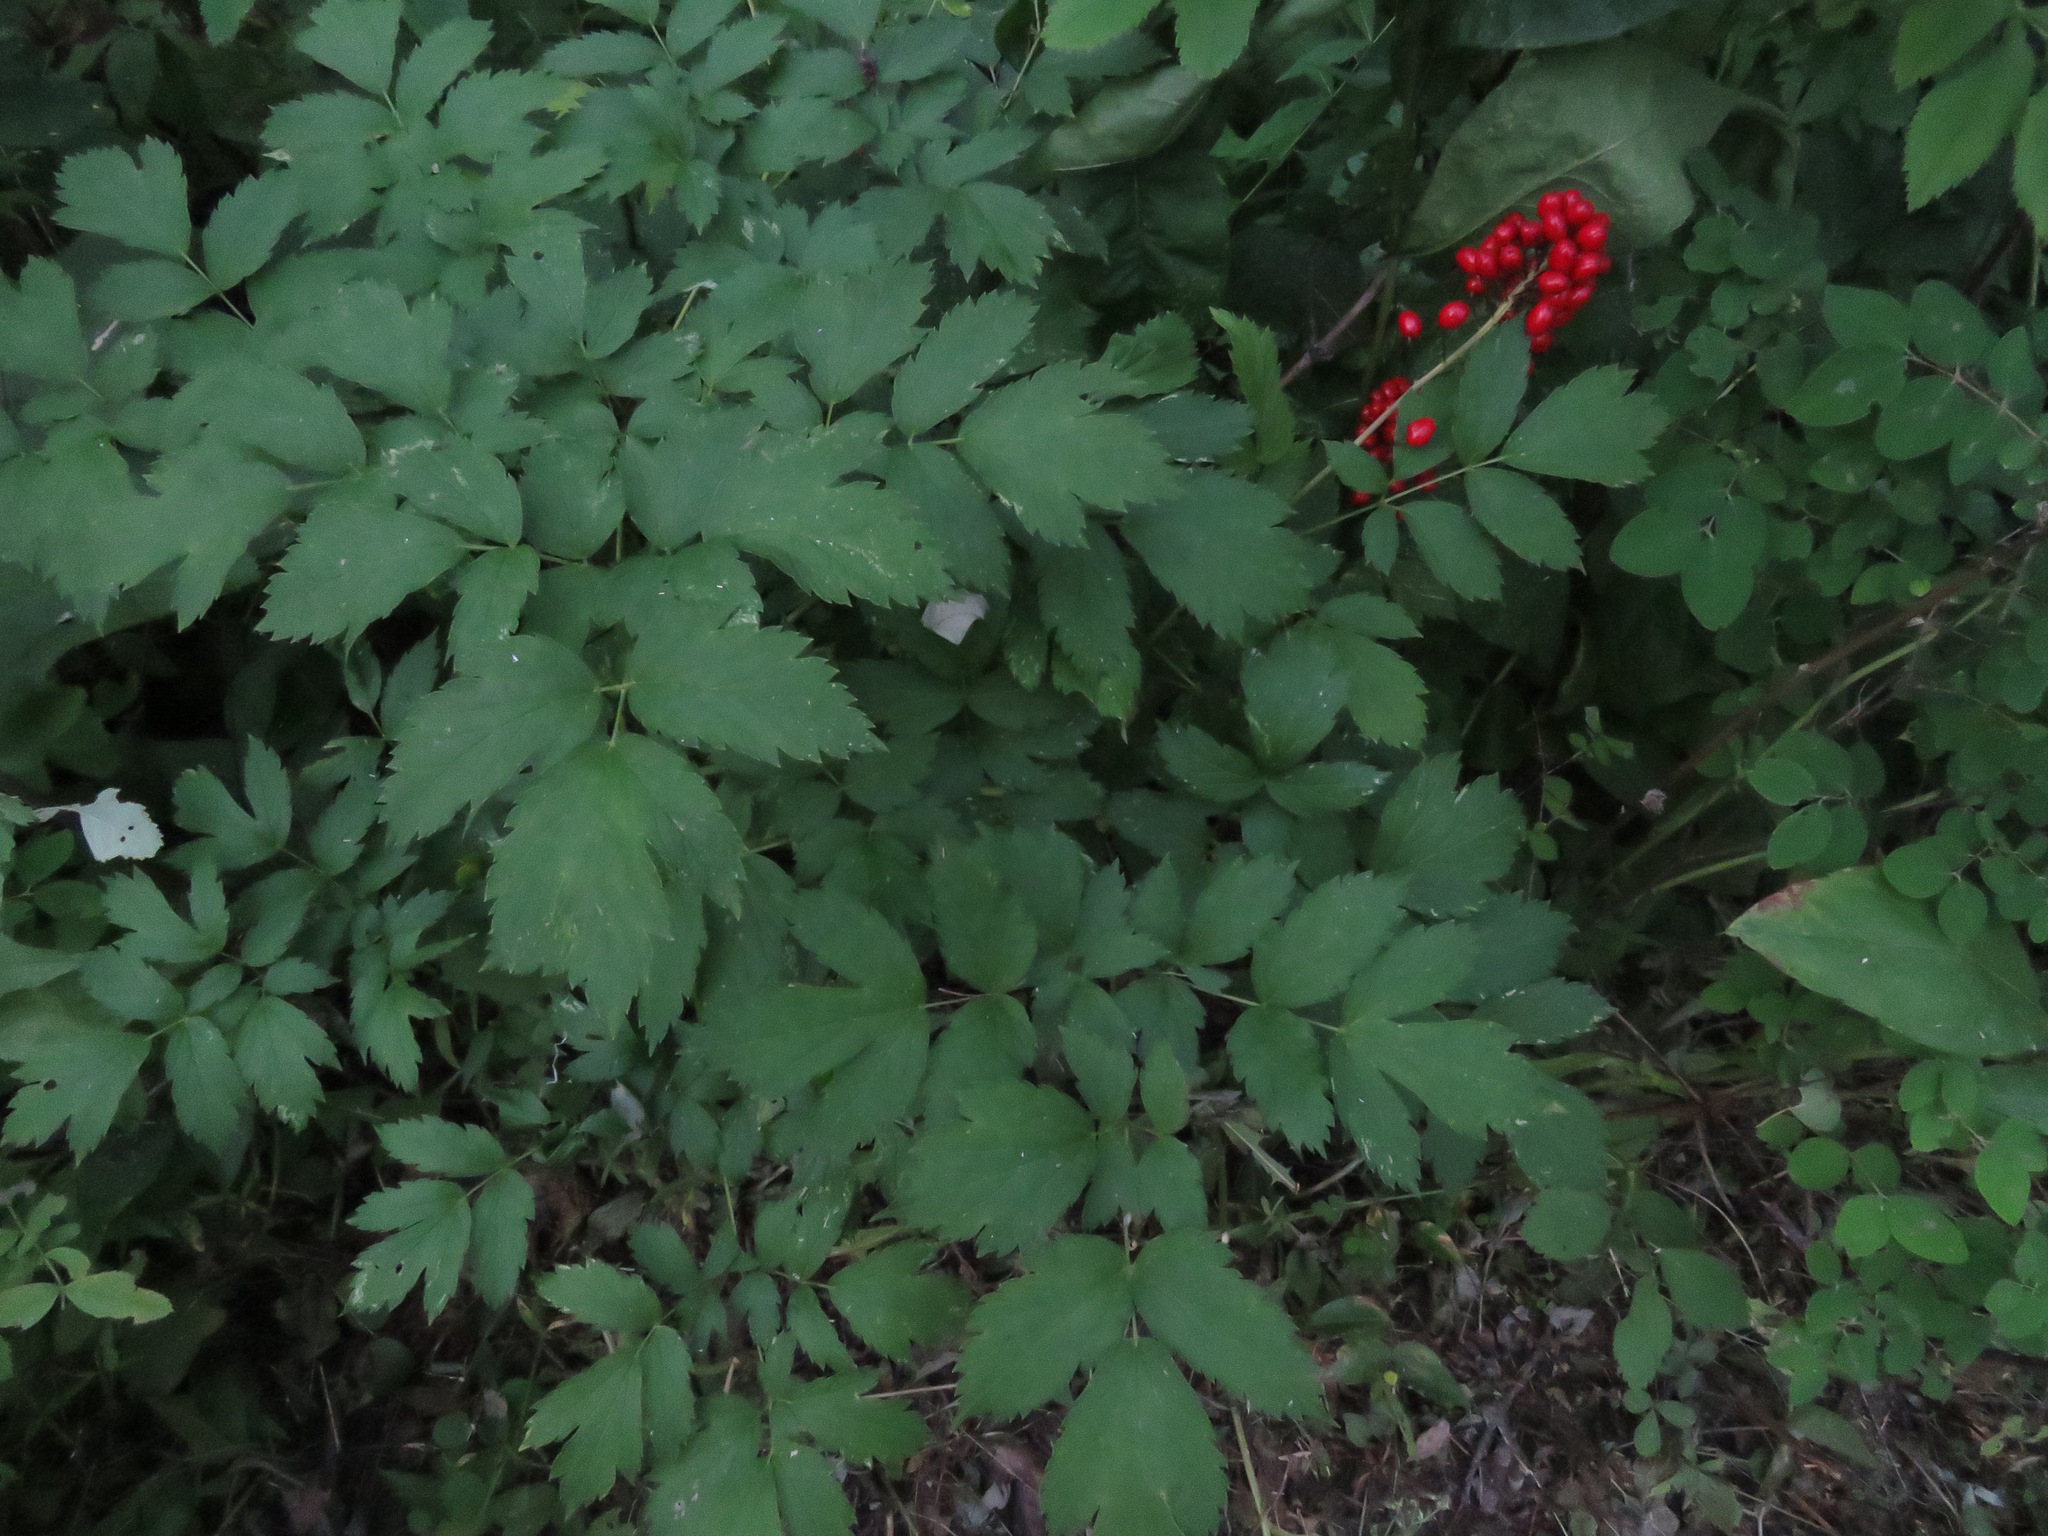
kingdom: Plantae
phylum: Tracheophyta
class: Magnoliopsida
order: Ranunculales
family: Ranunculaceae
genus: Actaea
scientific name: Actaea rubra
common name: Red baneberry
